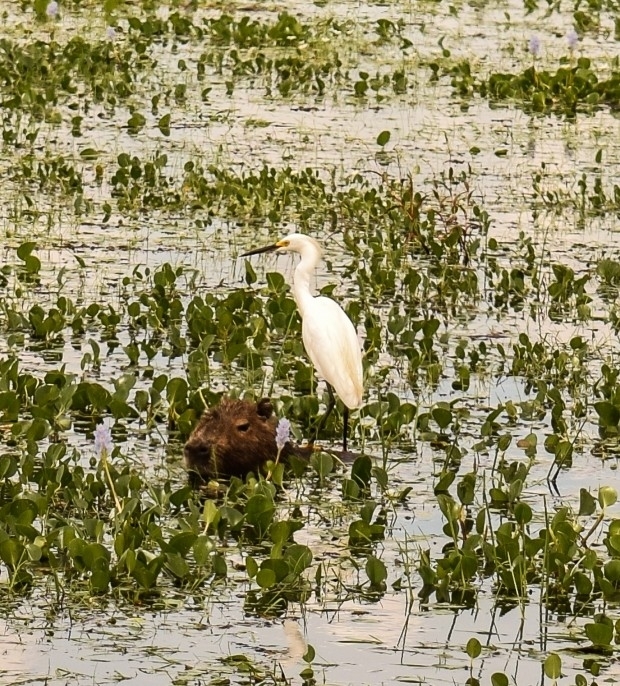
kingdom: Animalia
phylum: Chordata
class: Aves
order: Pelecaniformes
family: Ardeidae
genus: Egretta
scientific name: Egretta thula
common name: Snowy egret
